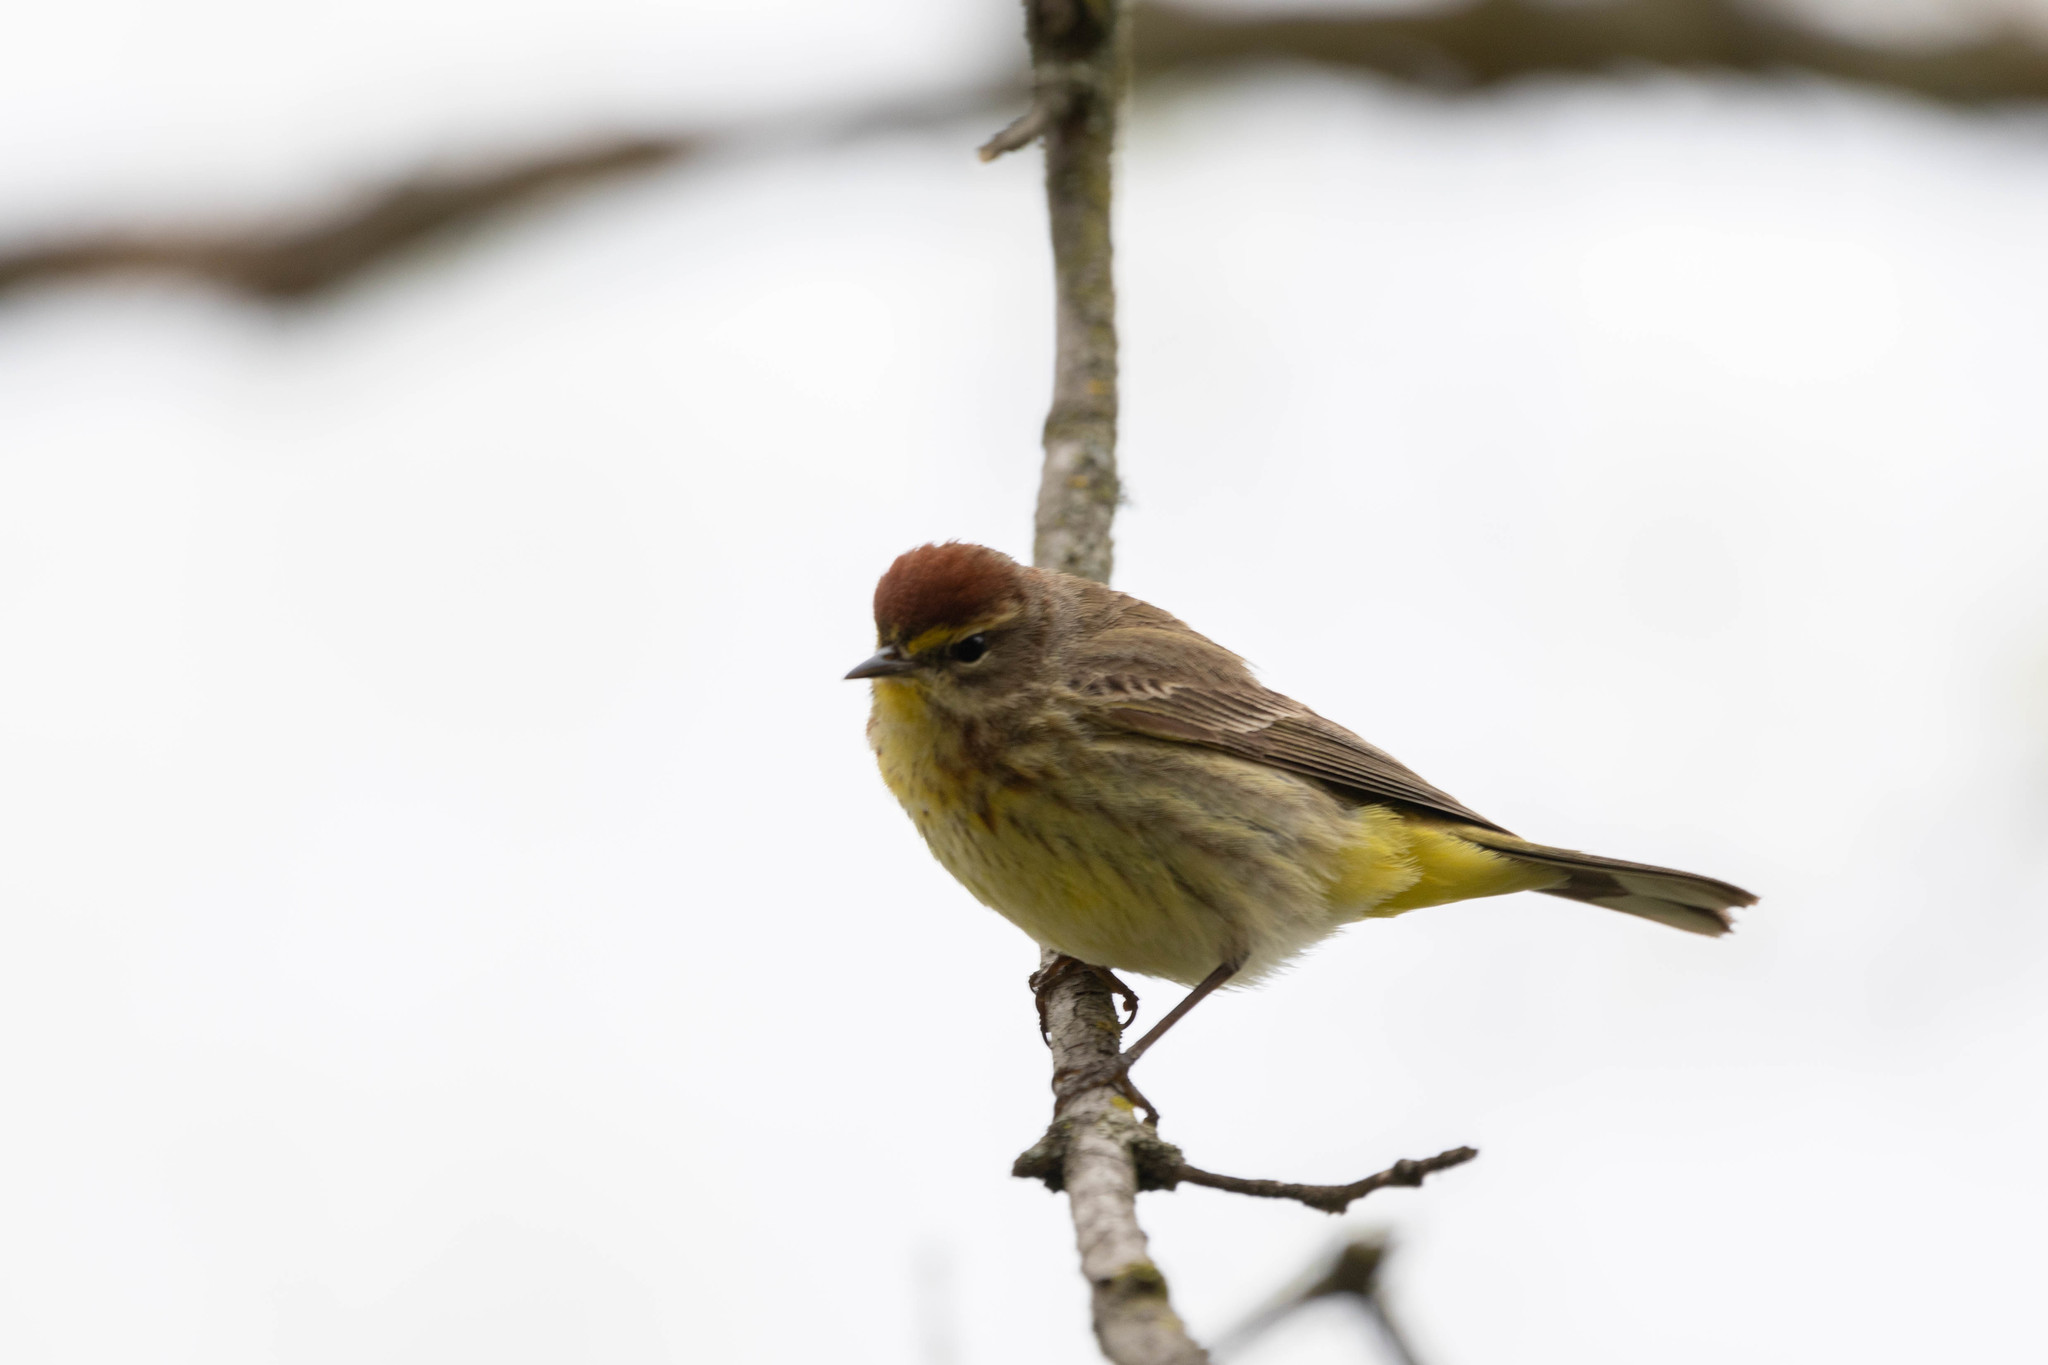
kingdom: Animalia
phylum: Chordata
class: Aves
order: Passeriformes
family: Parulidae
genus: Setophaga
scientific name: Setophaga palmarum
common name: Palm warbler
